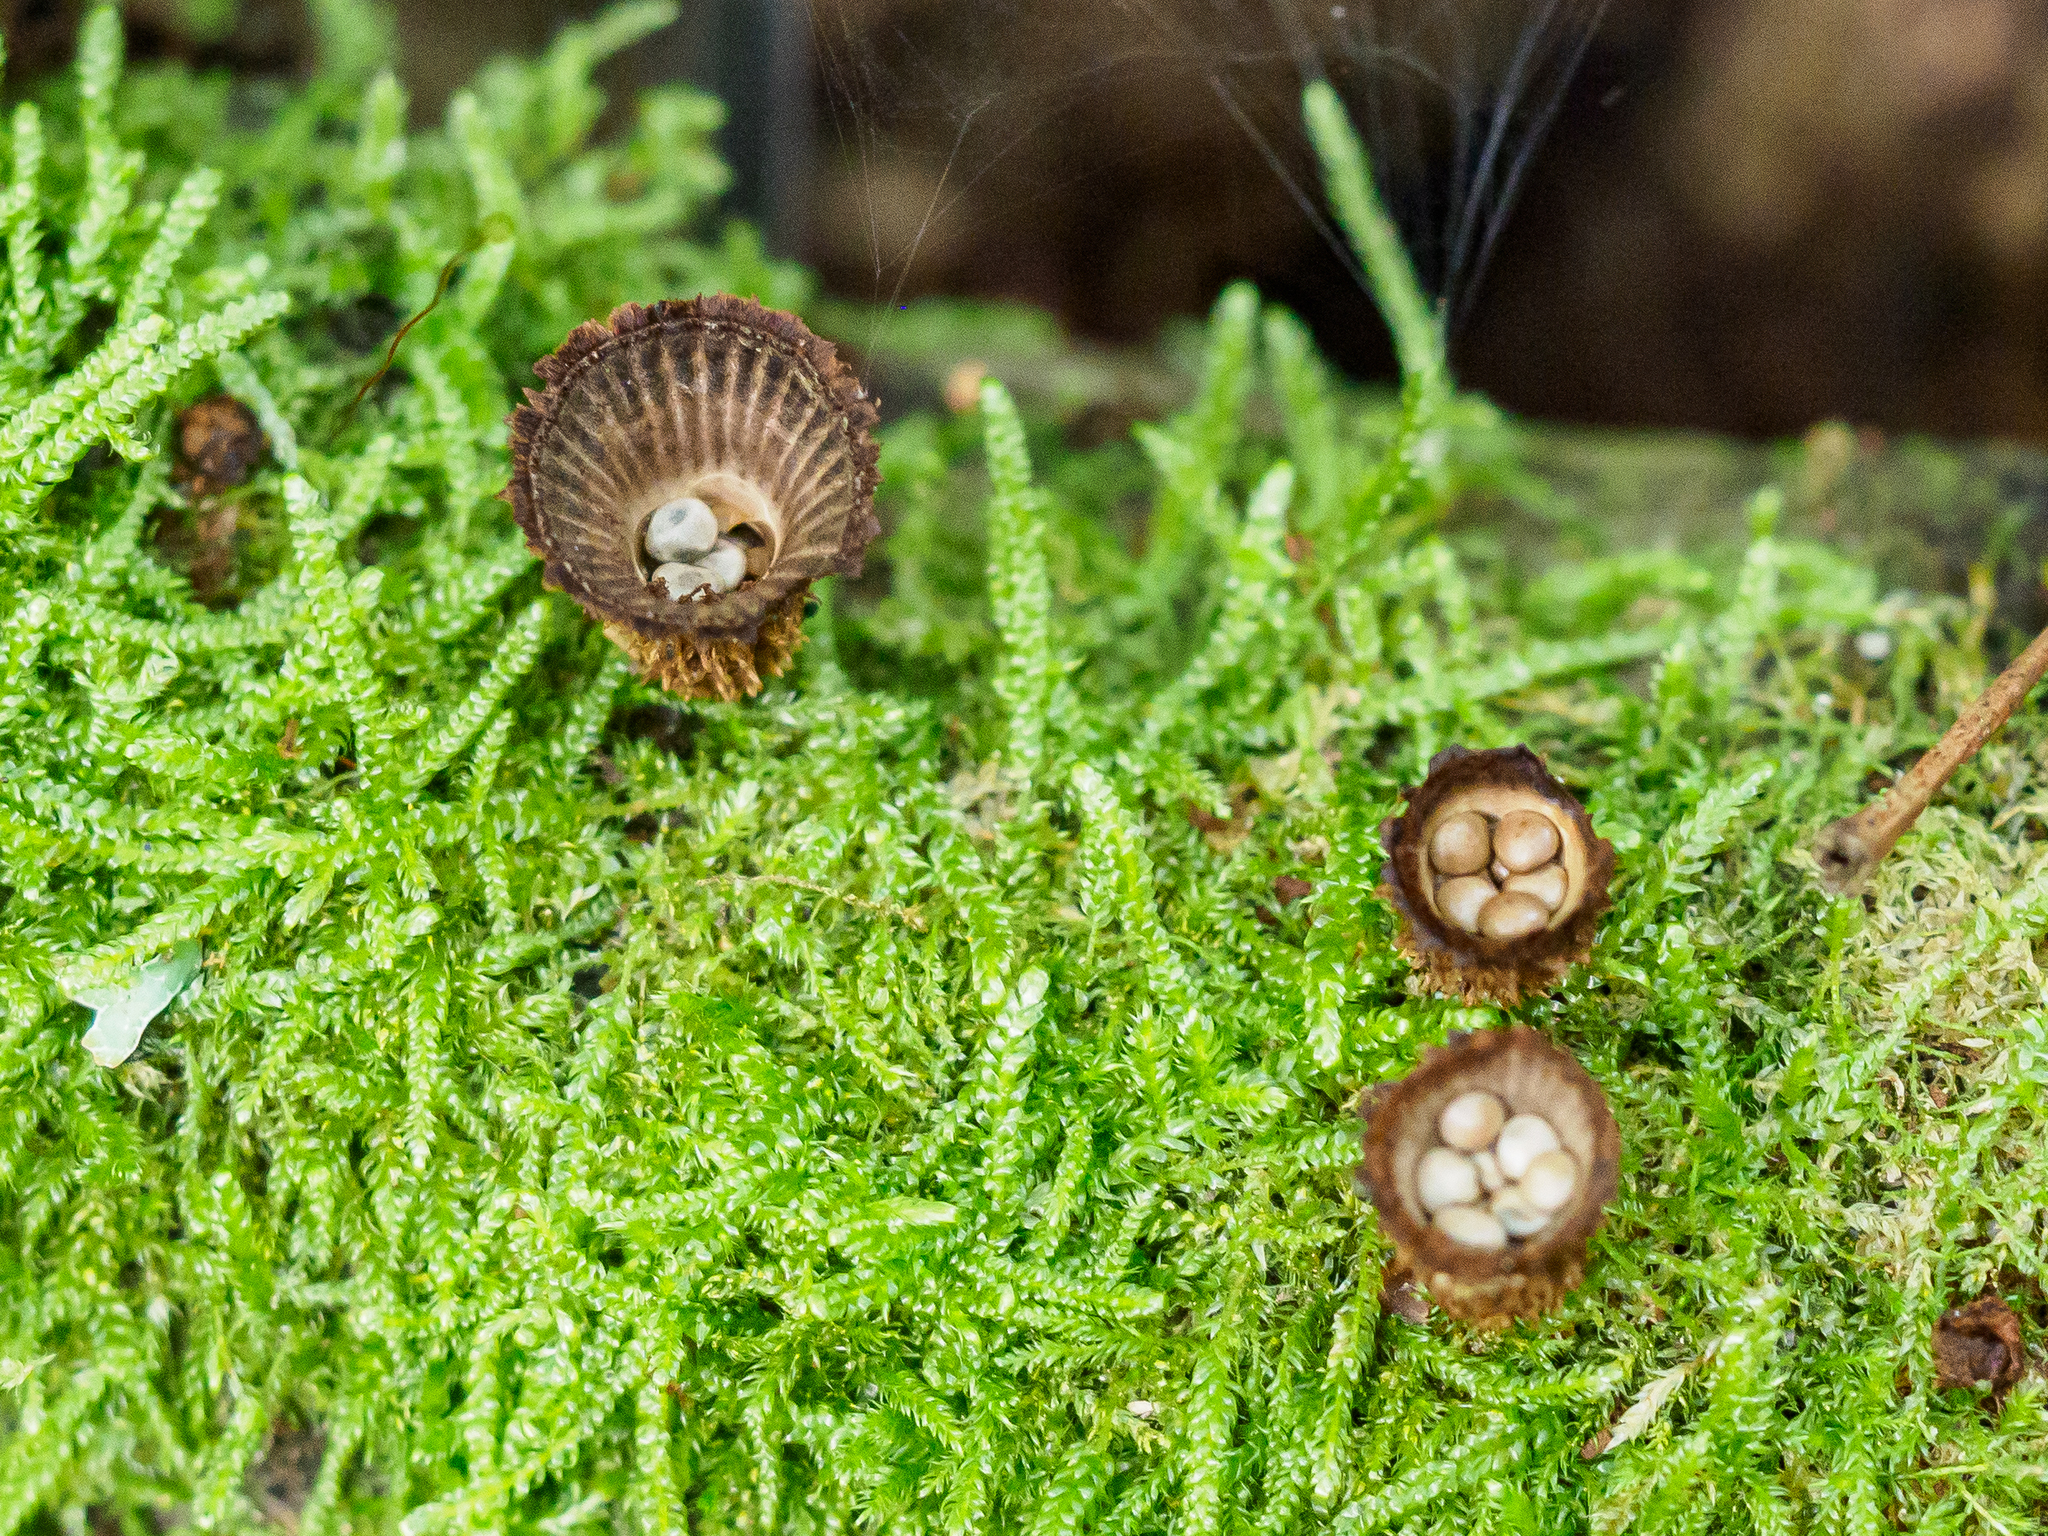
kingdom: Fungi
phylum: Basidiomycota
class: Agaricomycetes
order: Agaricales
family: Agaricaceae
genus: Cyathus
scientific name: Cyathus striatus
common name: Fluted bird's nest
